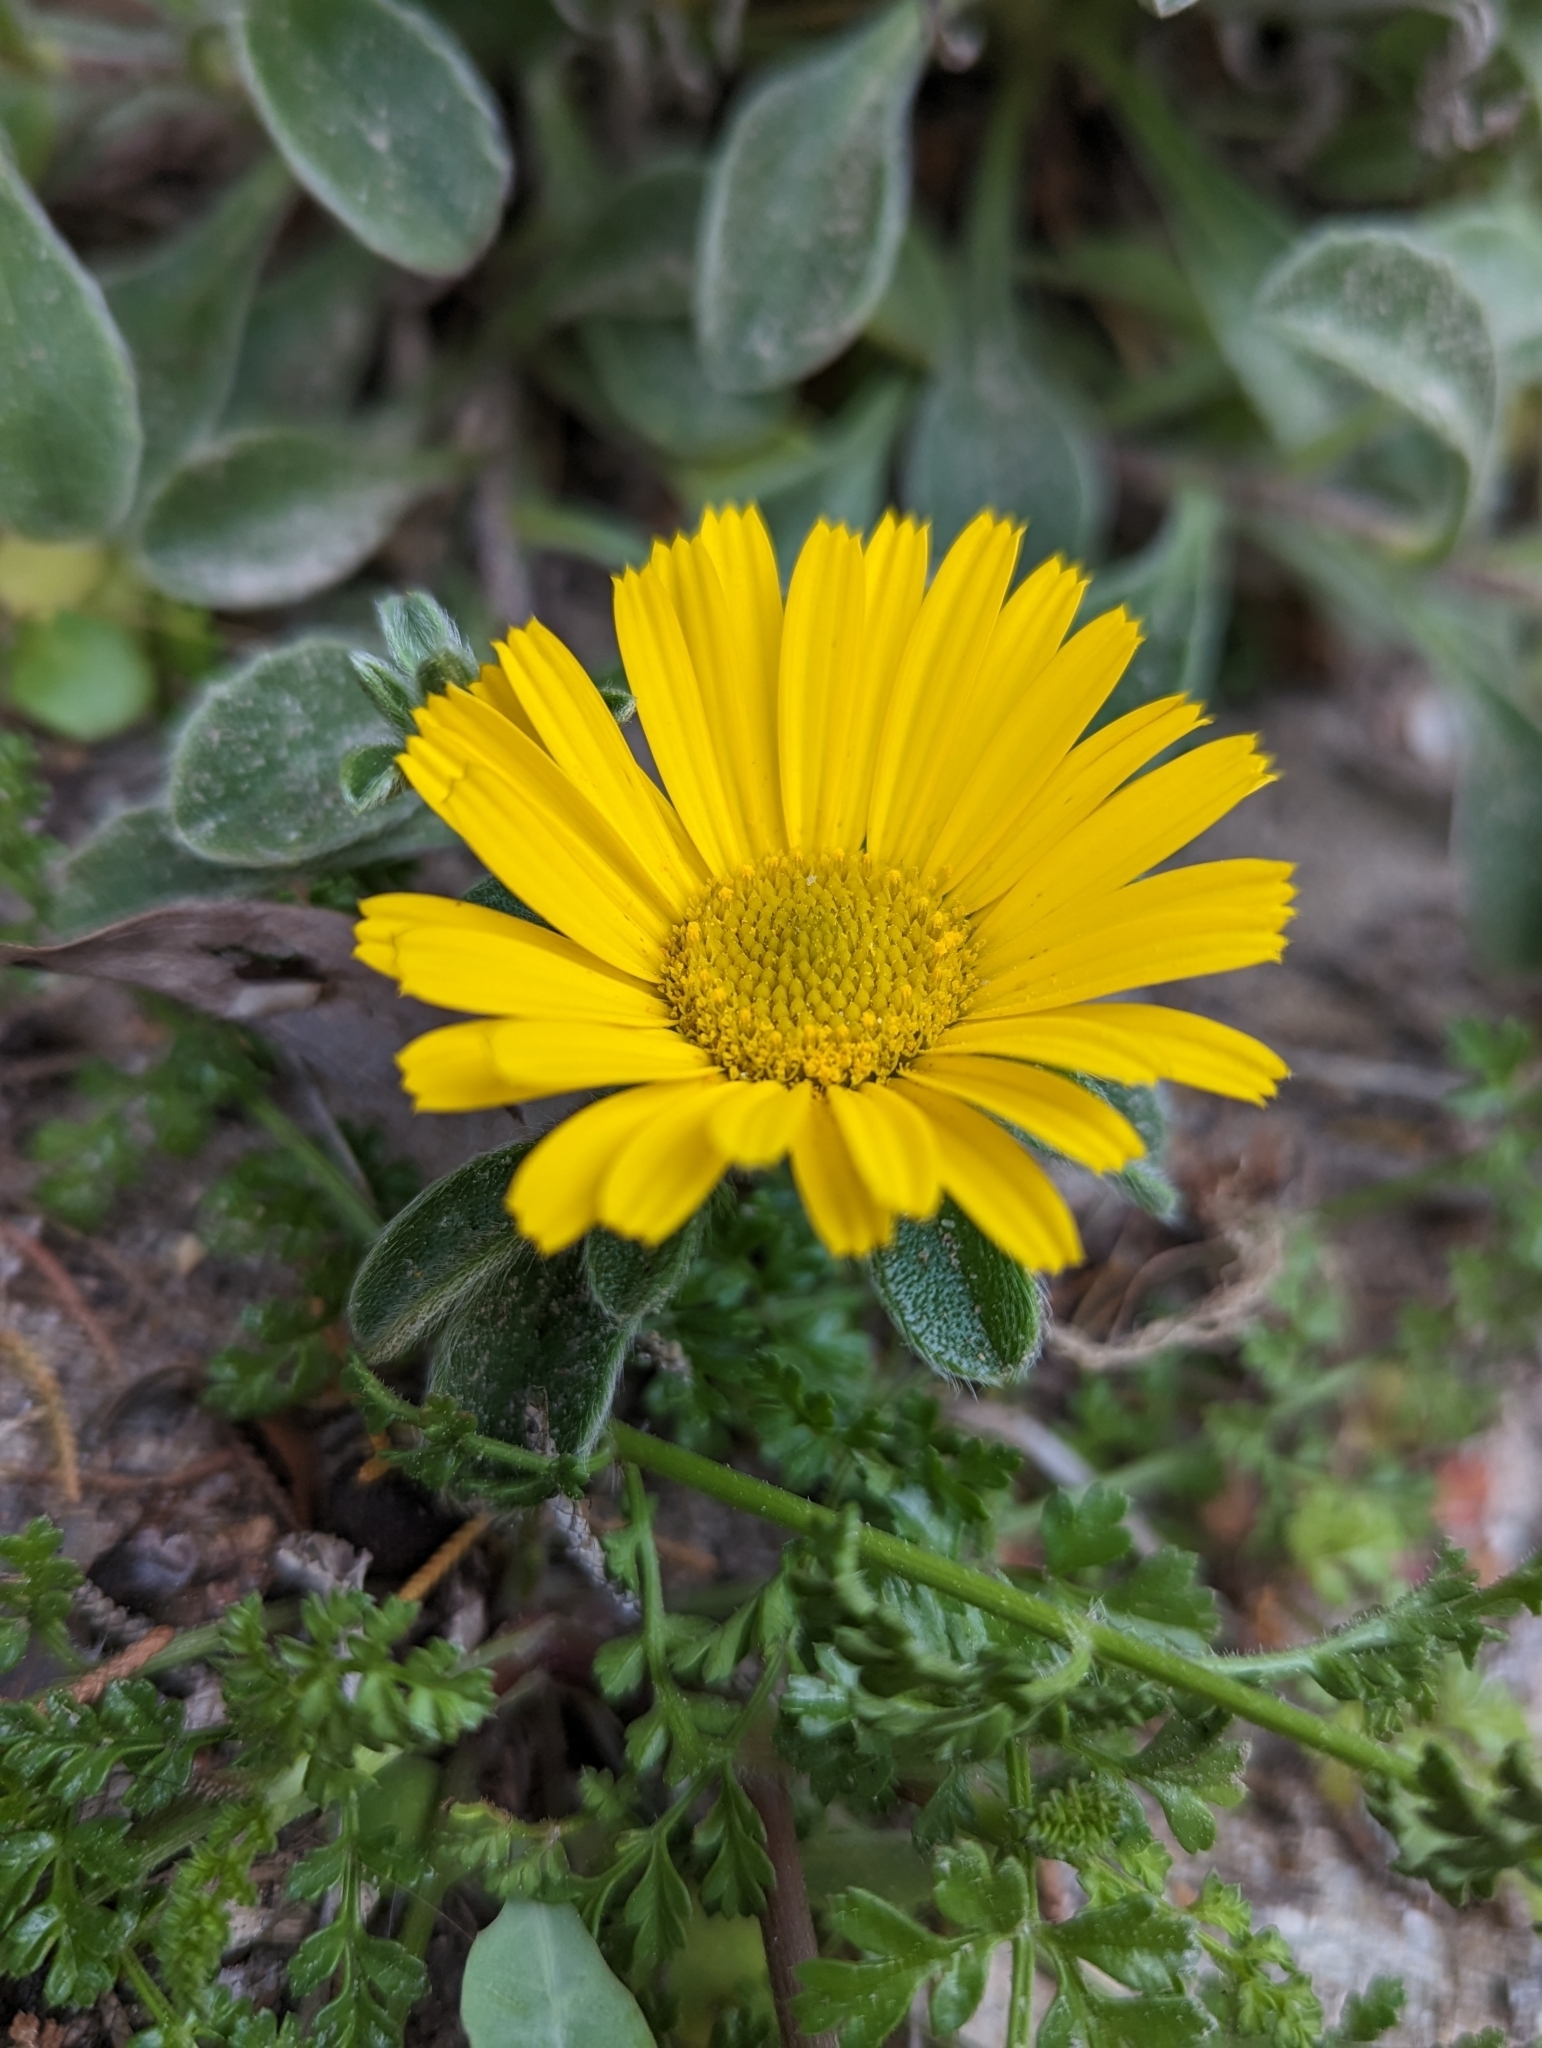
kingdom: Plantae
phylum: Tracheophyta
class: Magnoliopsida
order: Asterales
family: Asteraceae
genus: Pallenis
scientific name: Pallenis maritima
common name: Golden coin daisy
